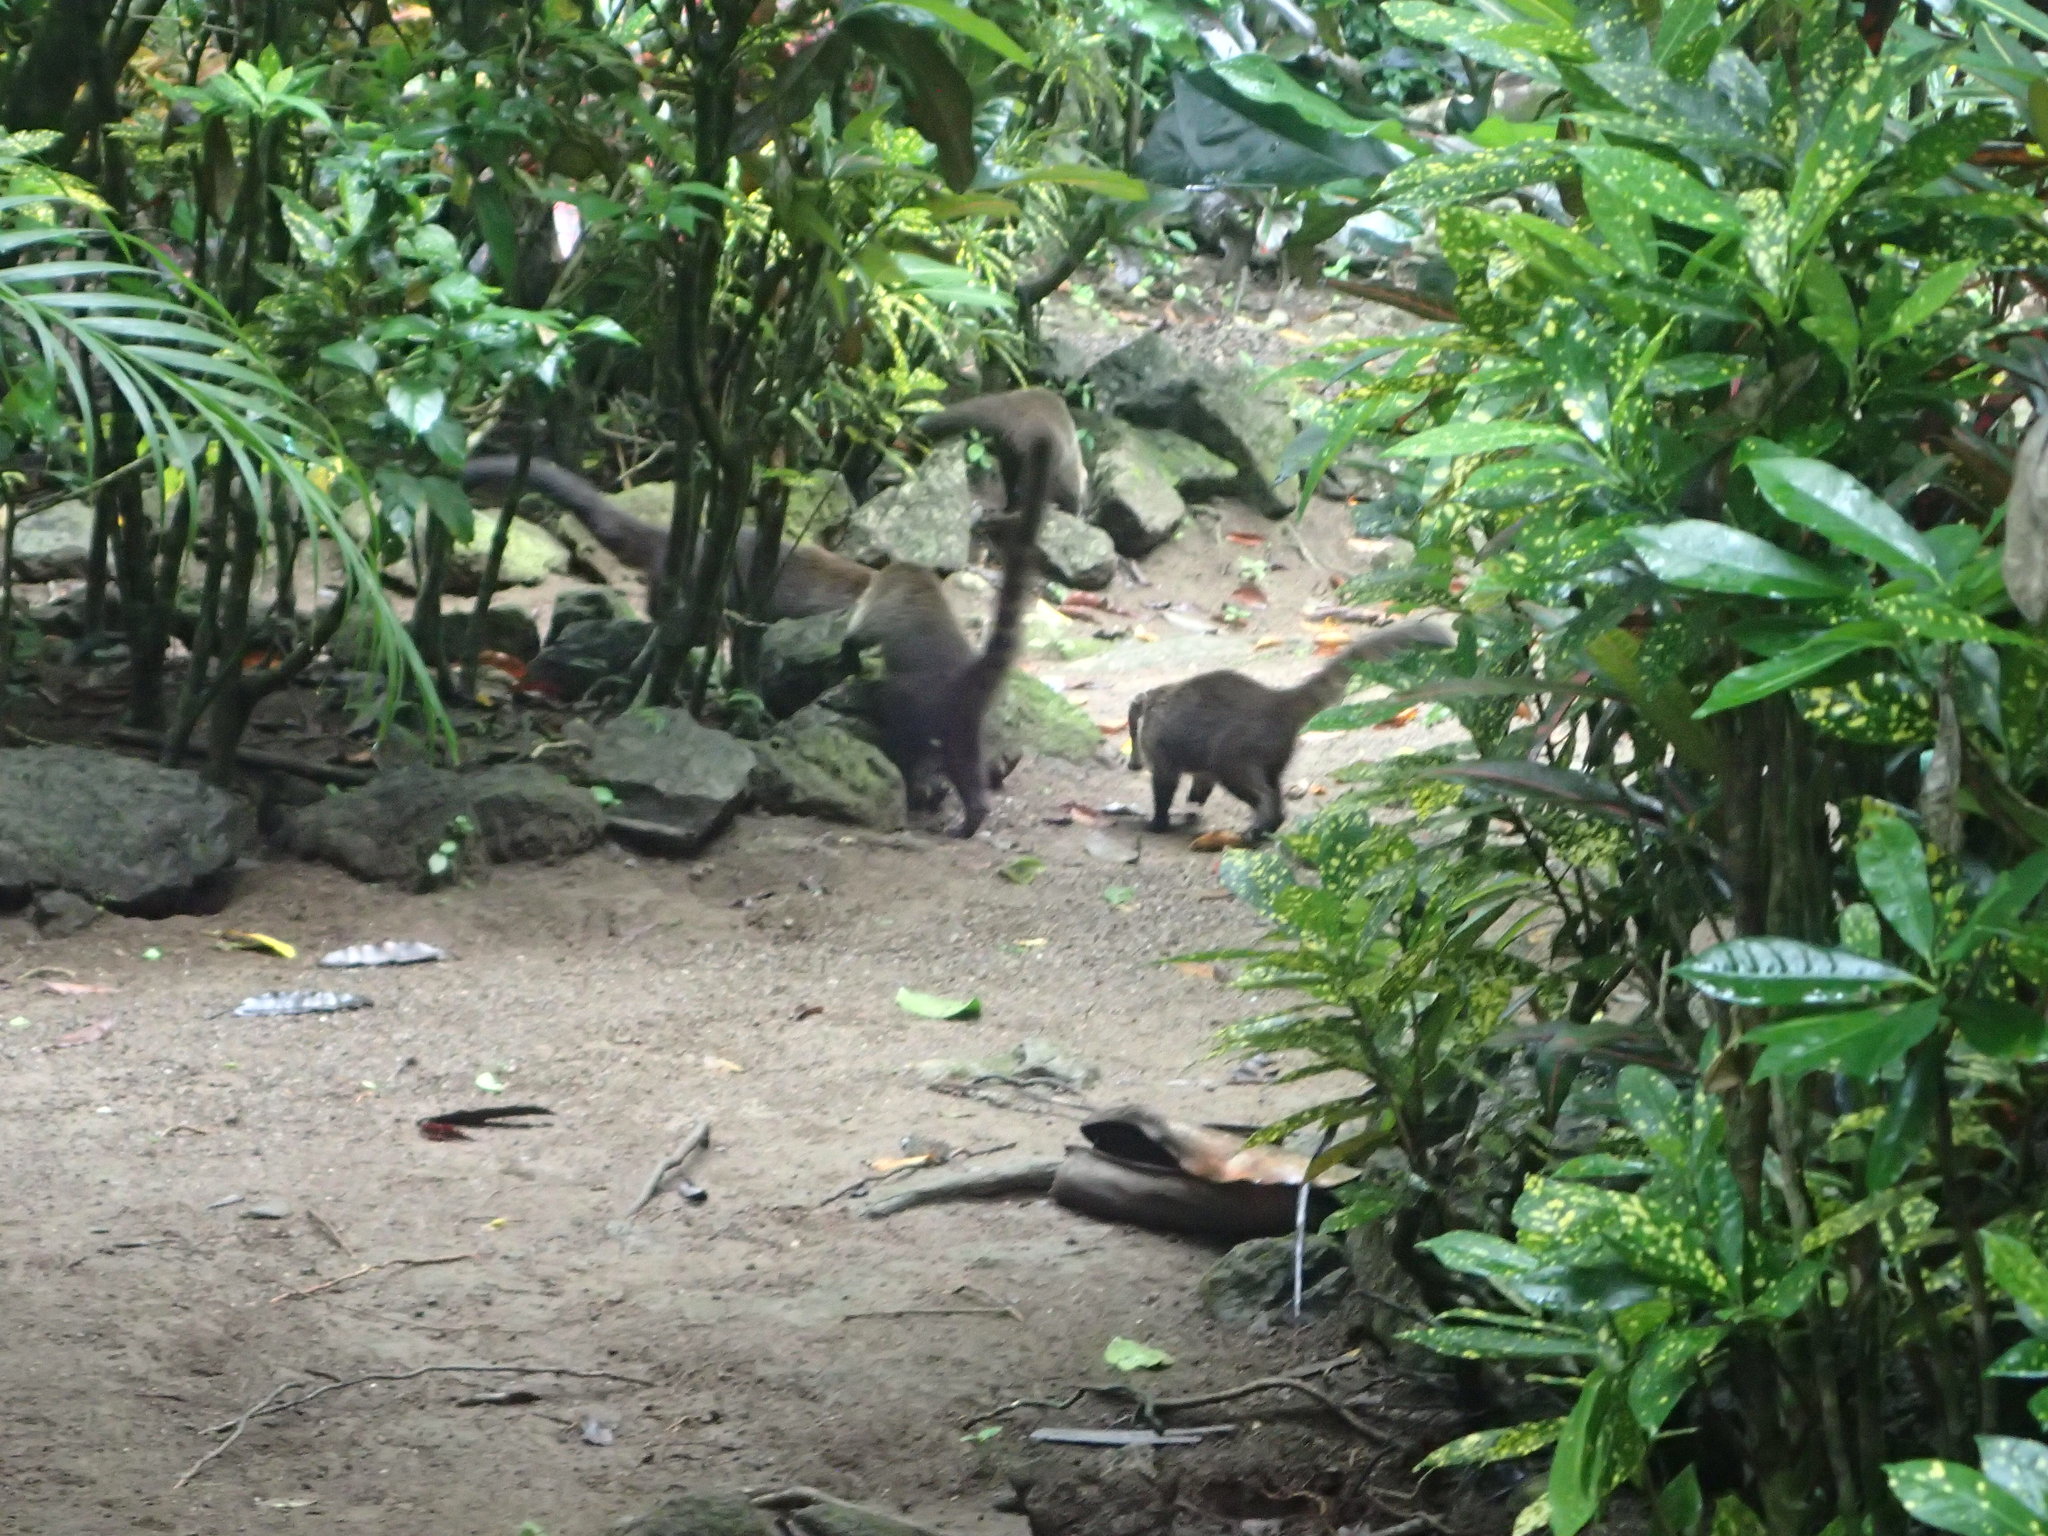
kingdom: Animalia
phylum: Chordata
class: Mammalia
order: Carnivora
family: Procyonidae
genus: Nasua
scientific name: Nasua narica
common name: White-nosed coati
